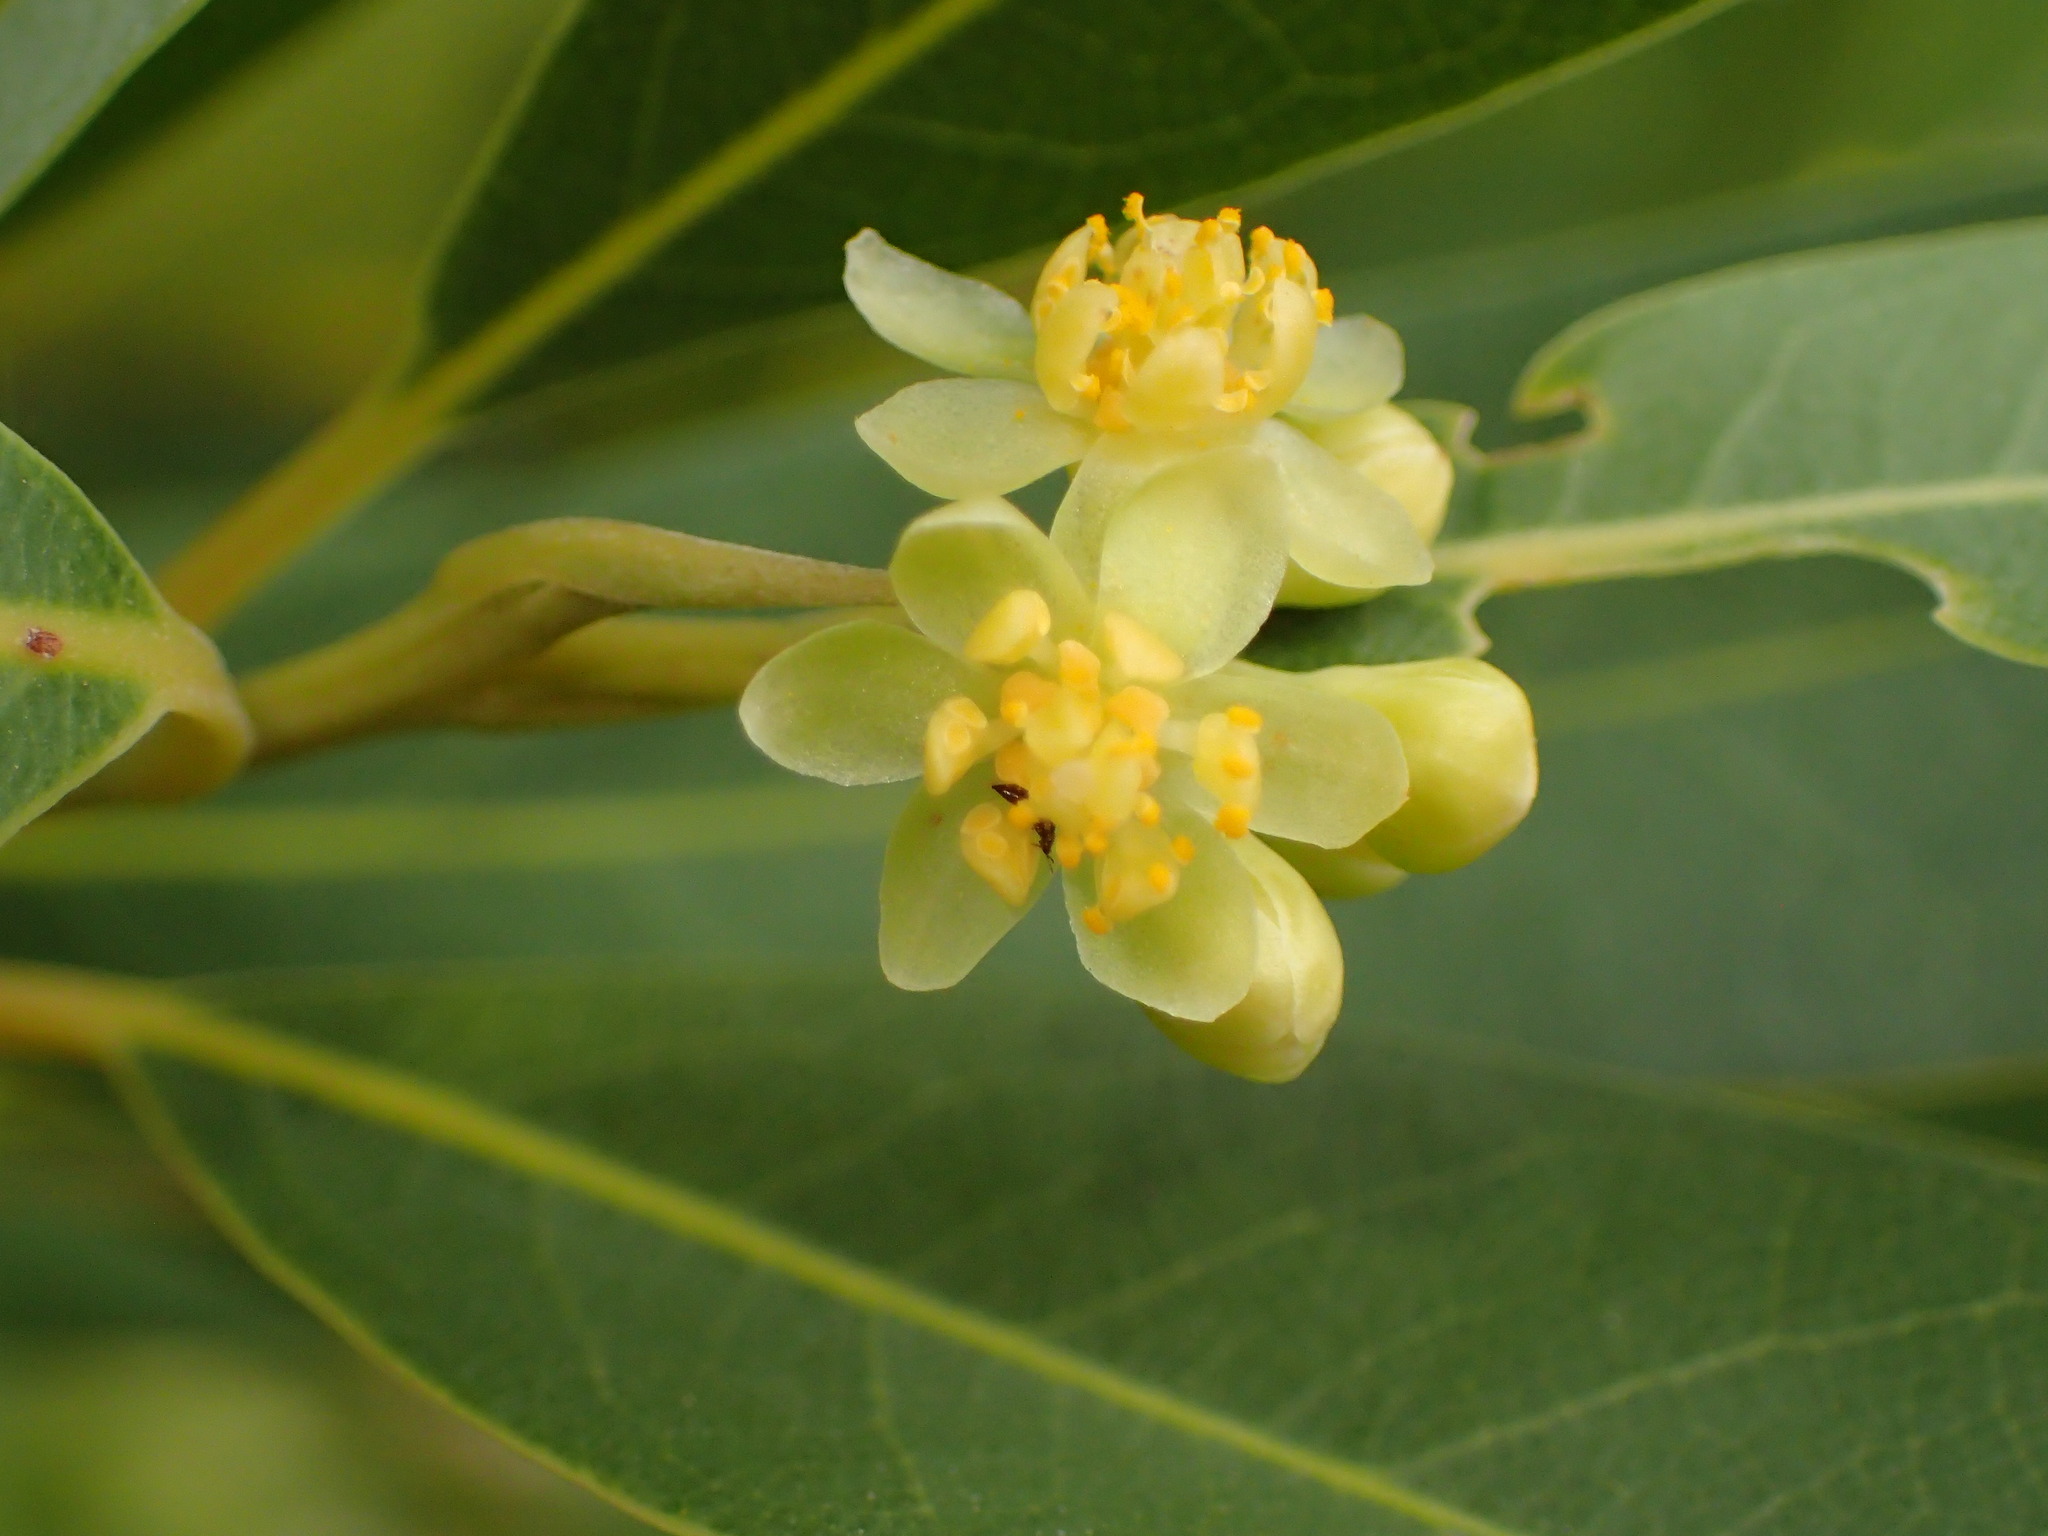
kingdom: Plantae
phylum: Tracheophyta
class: Magnoliopsida
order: Laurales
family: Lauraceae
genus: Umbellularia
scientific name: Umbellularia californica
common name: California bay
